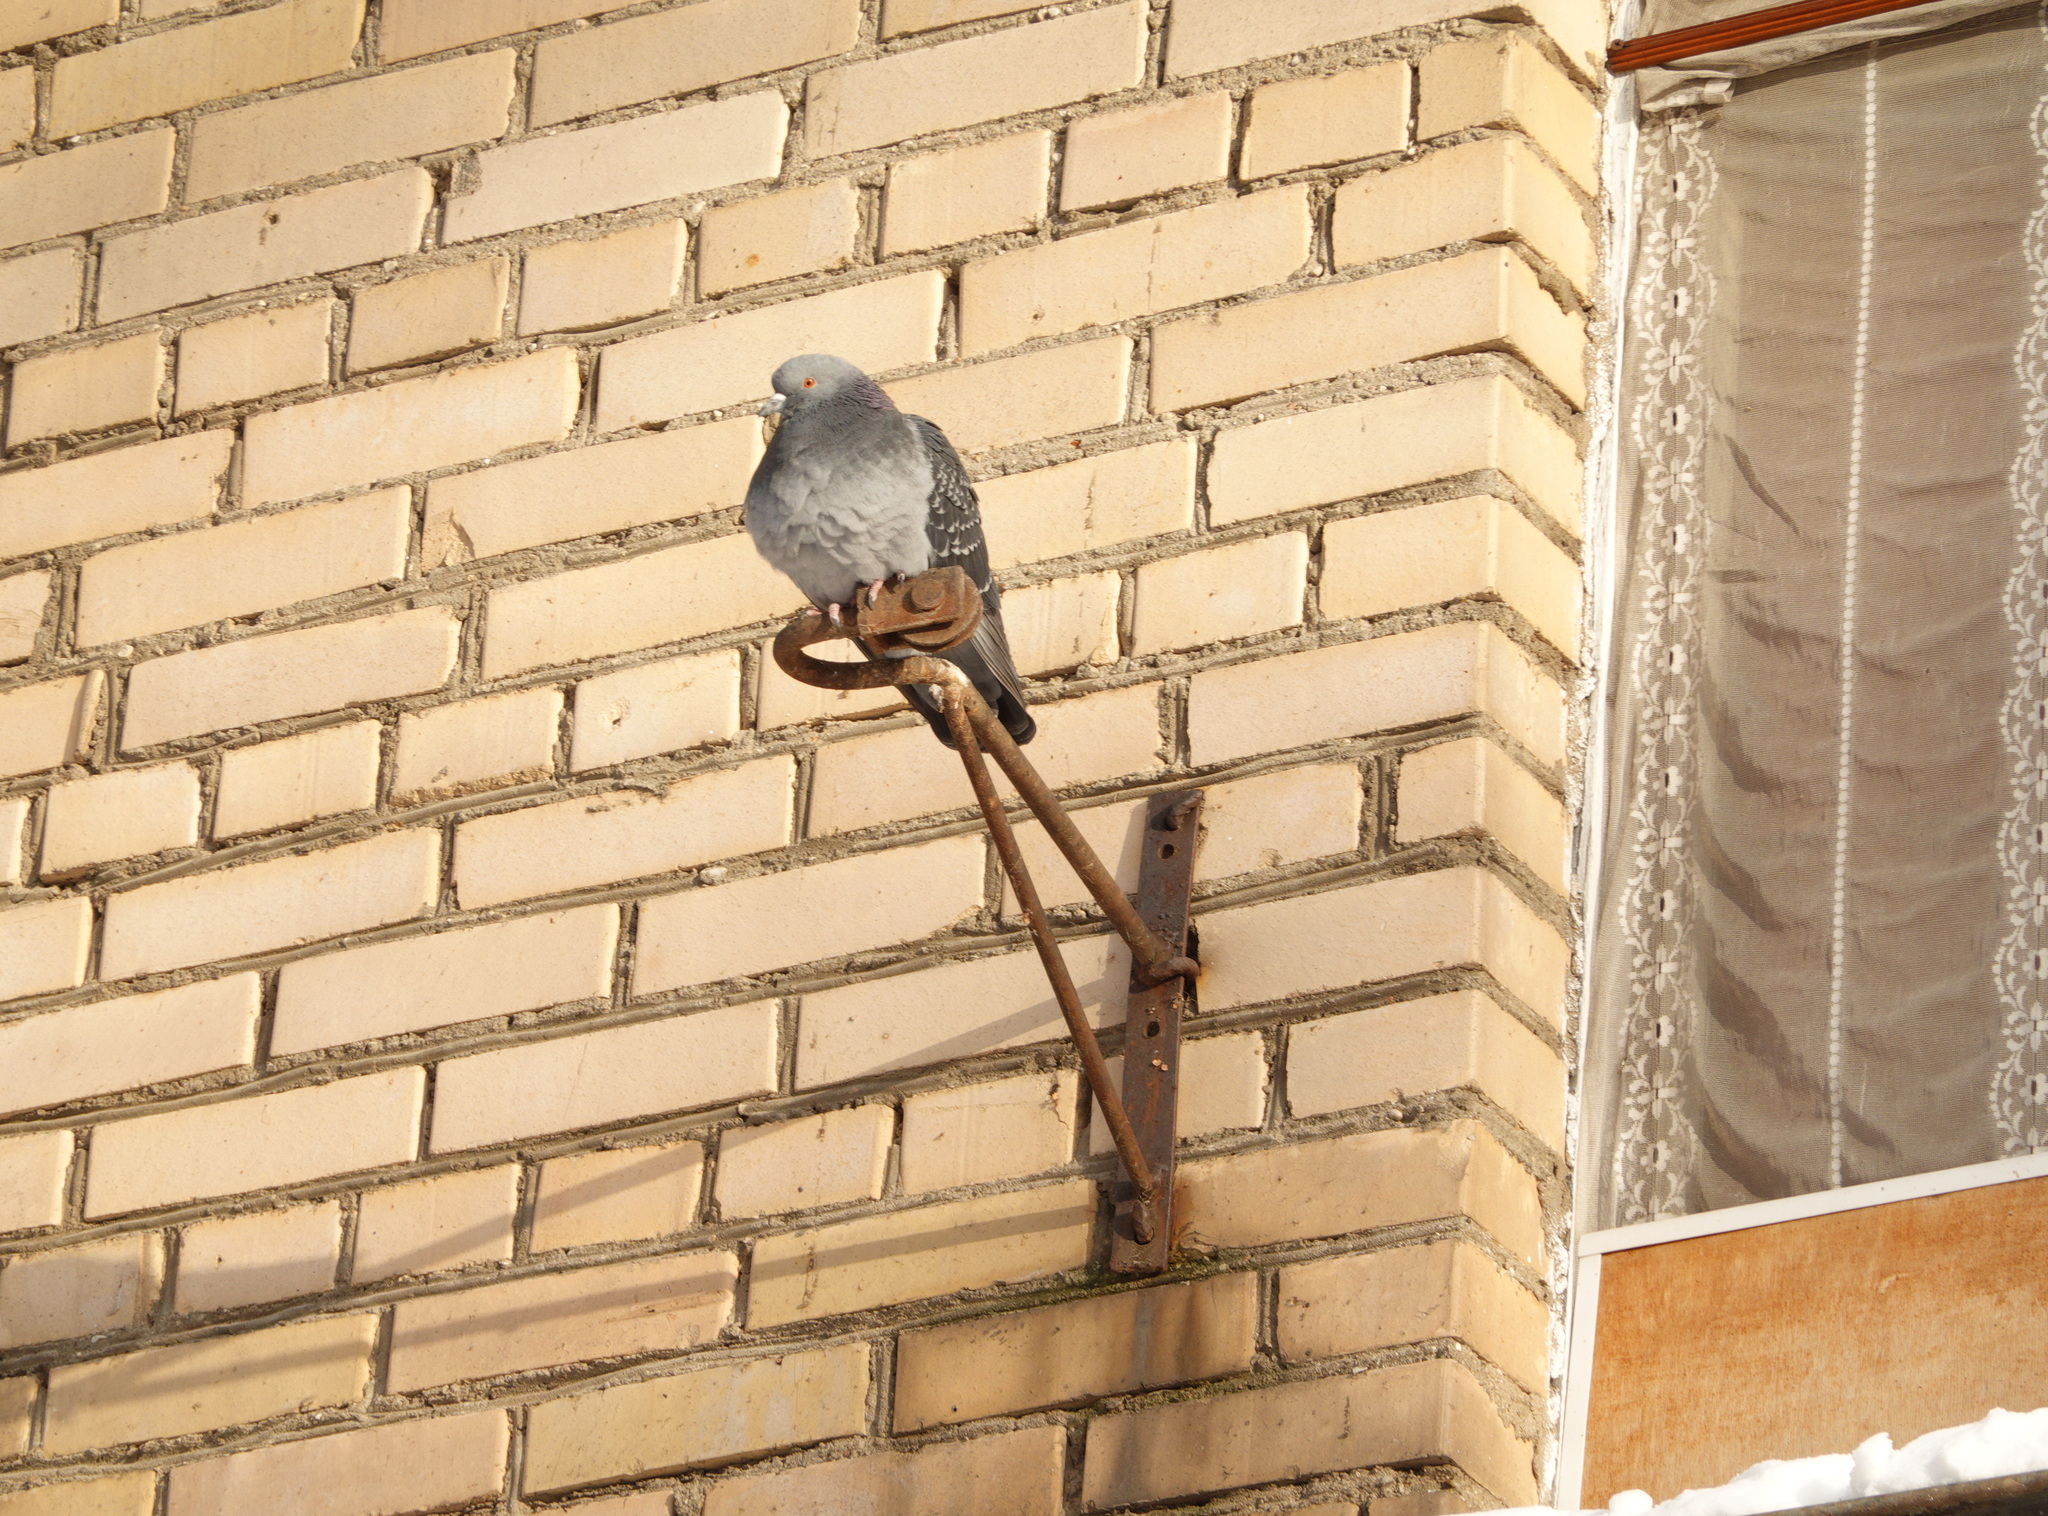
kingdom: Animalia
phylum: Chordata
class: Aves
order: Columbiformes
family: Columbidae
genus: Columba
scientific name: Columba livia
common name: Rock pigeon
